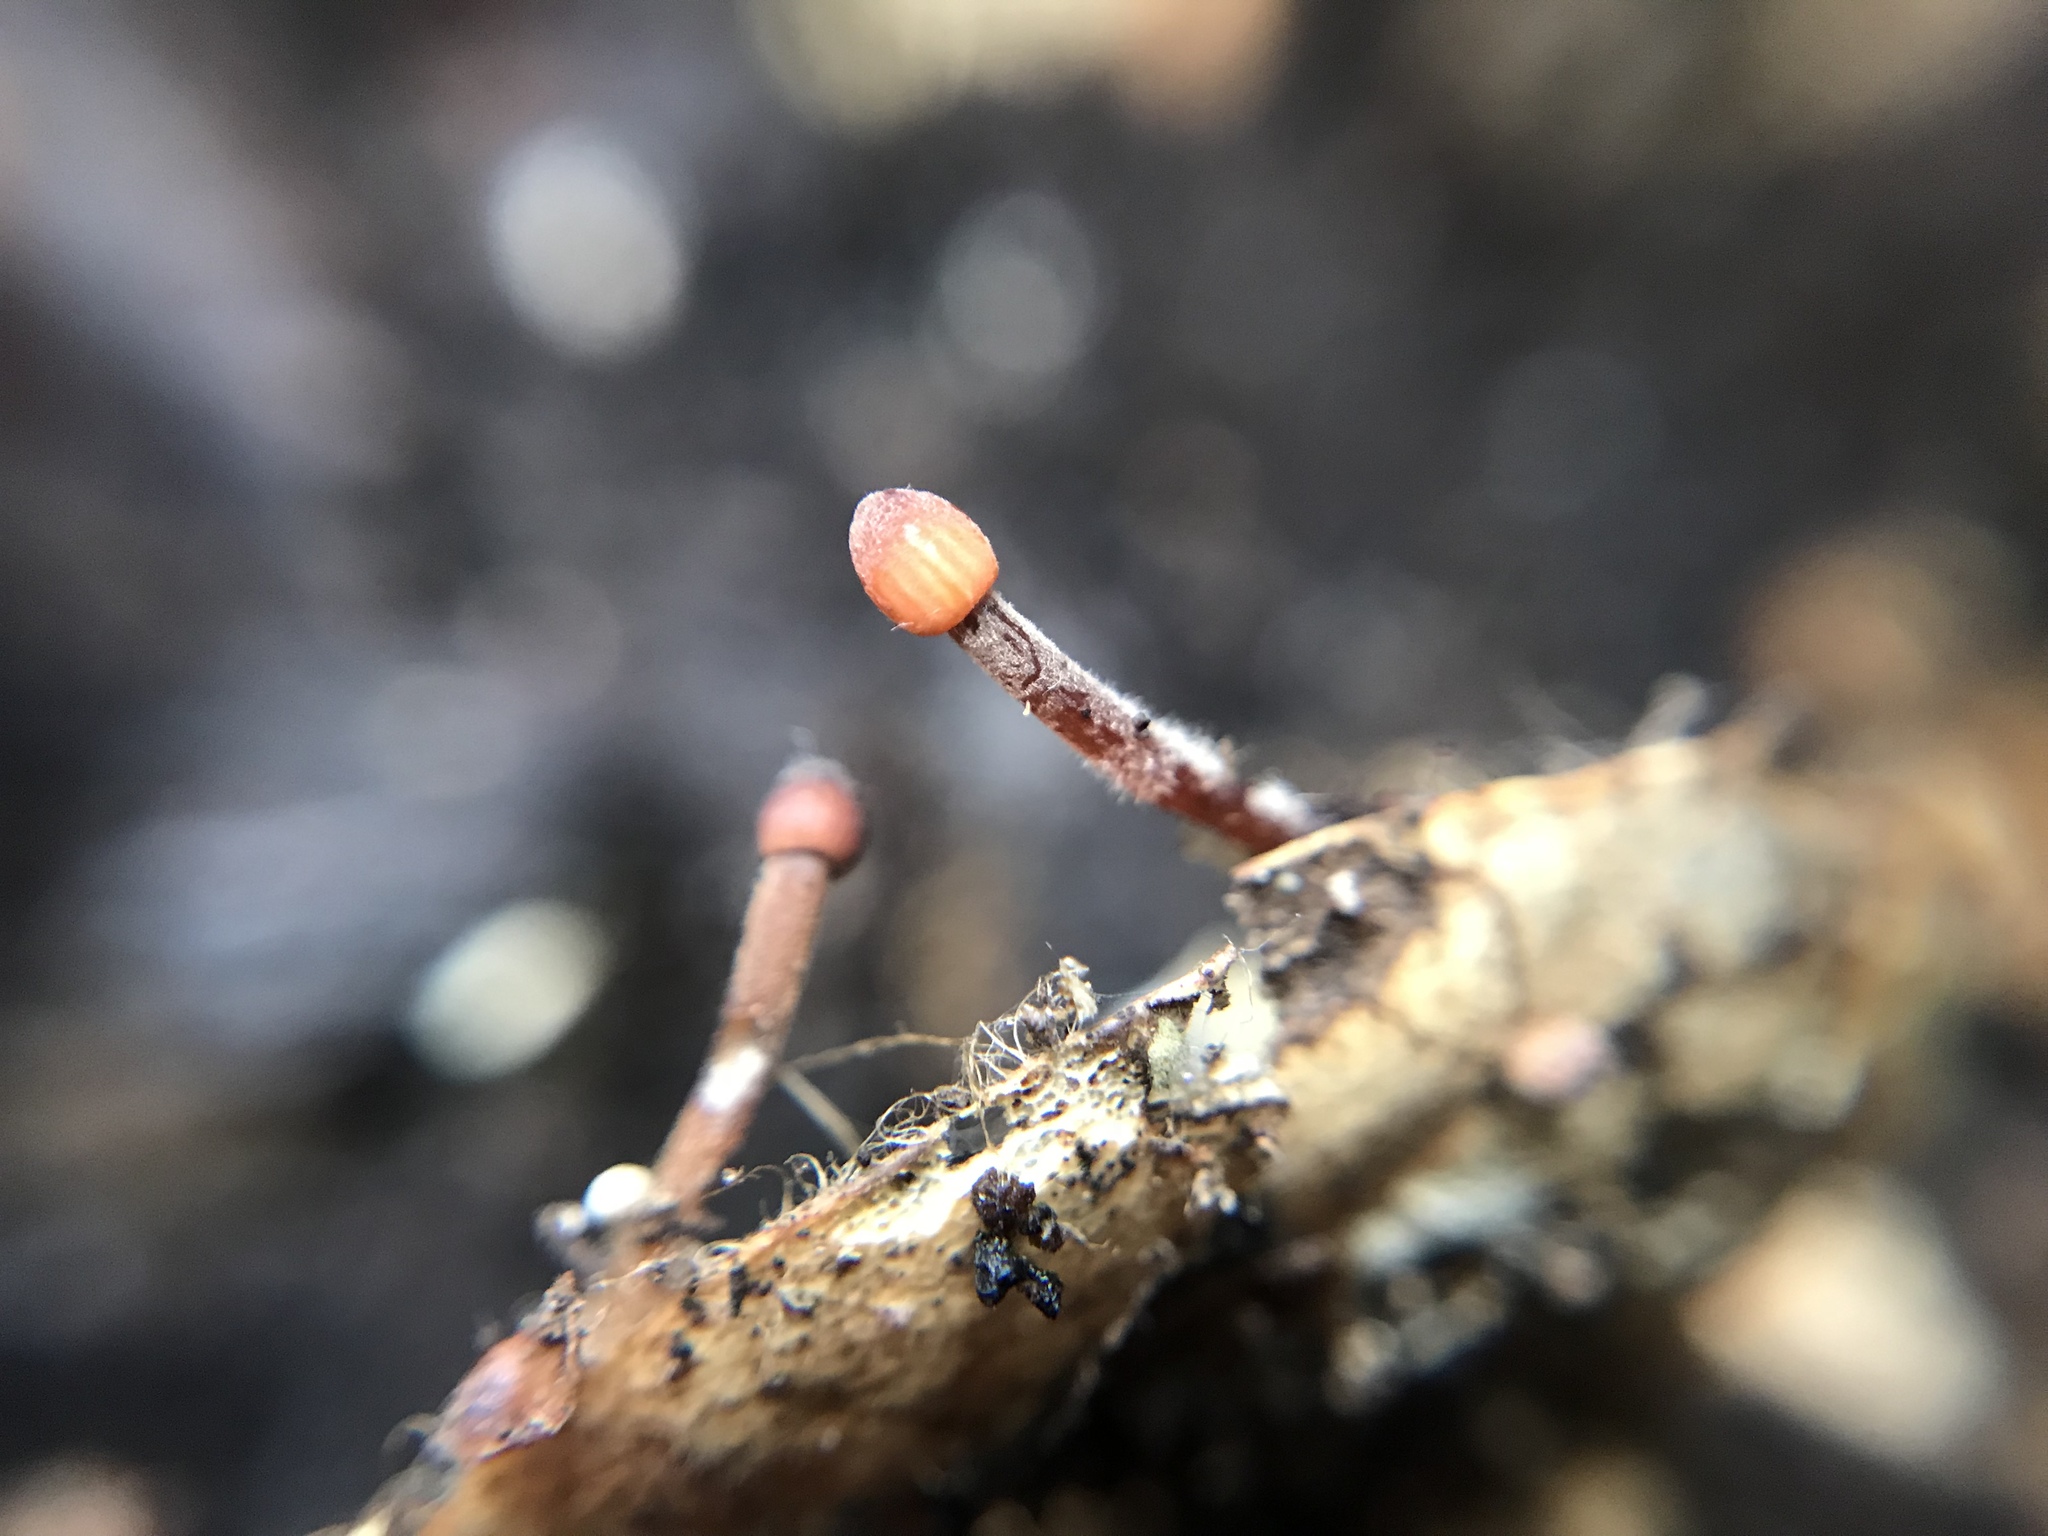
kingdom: Fungi
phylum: Basidiomycota
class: Agaricomycetes
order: Agaricales
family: Mycenaceae
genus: Mycena
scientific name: Mycena haematopus
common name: Burgundydrop bonnet
